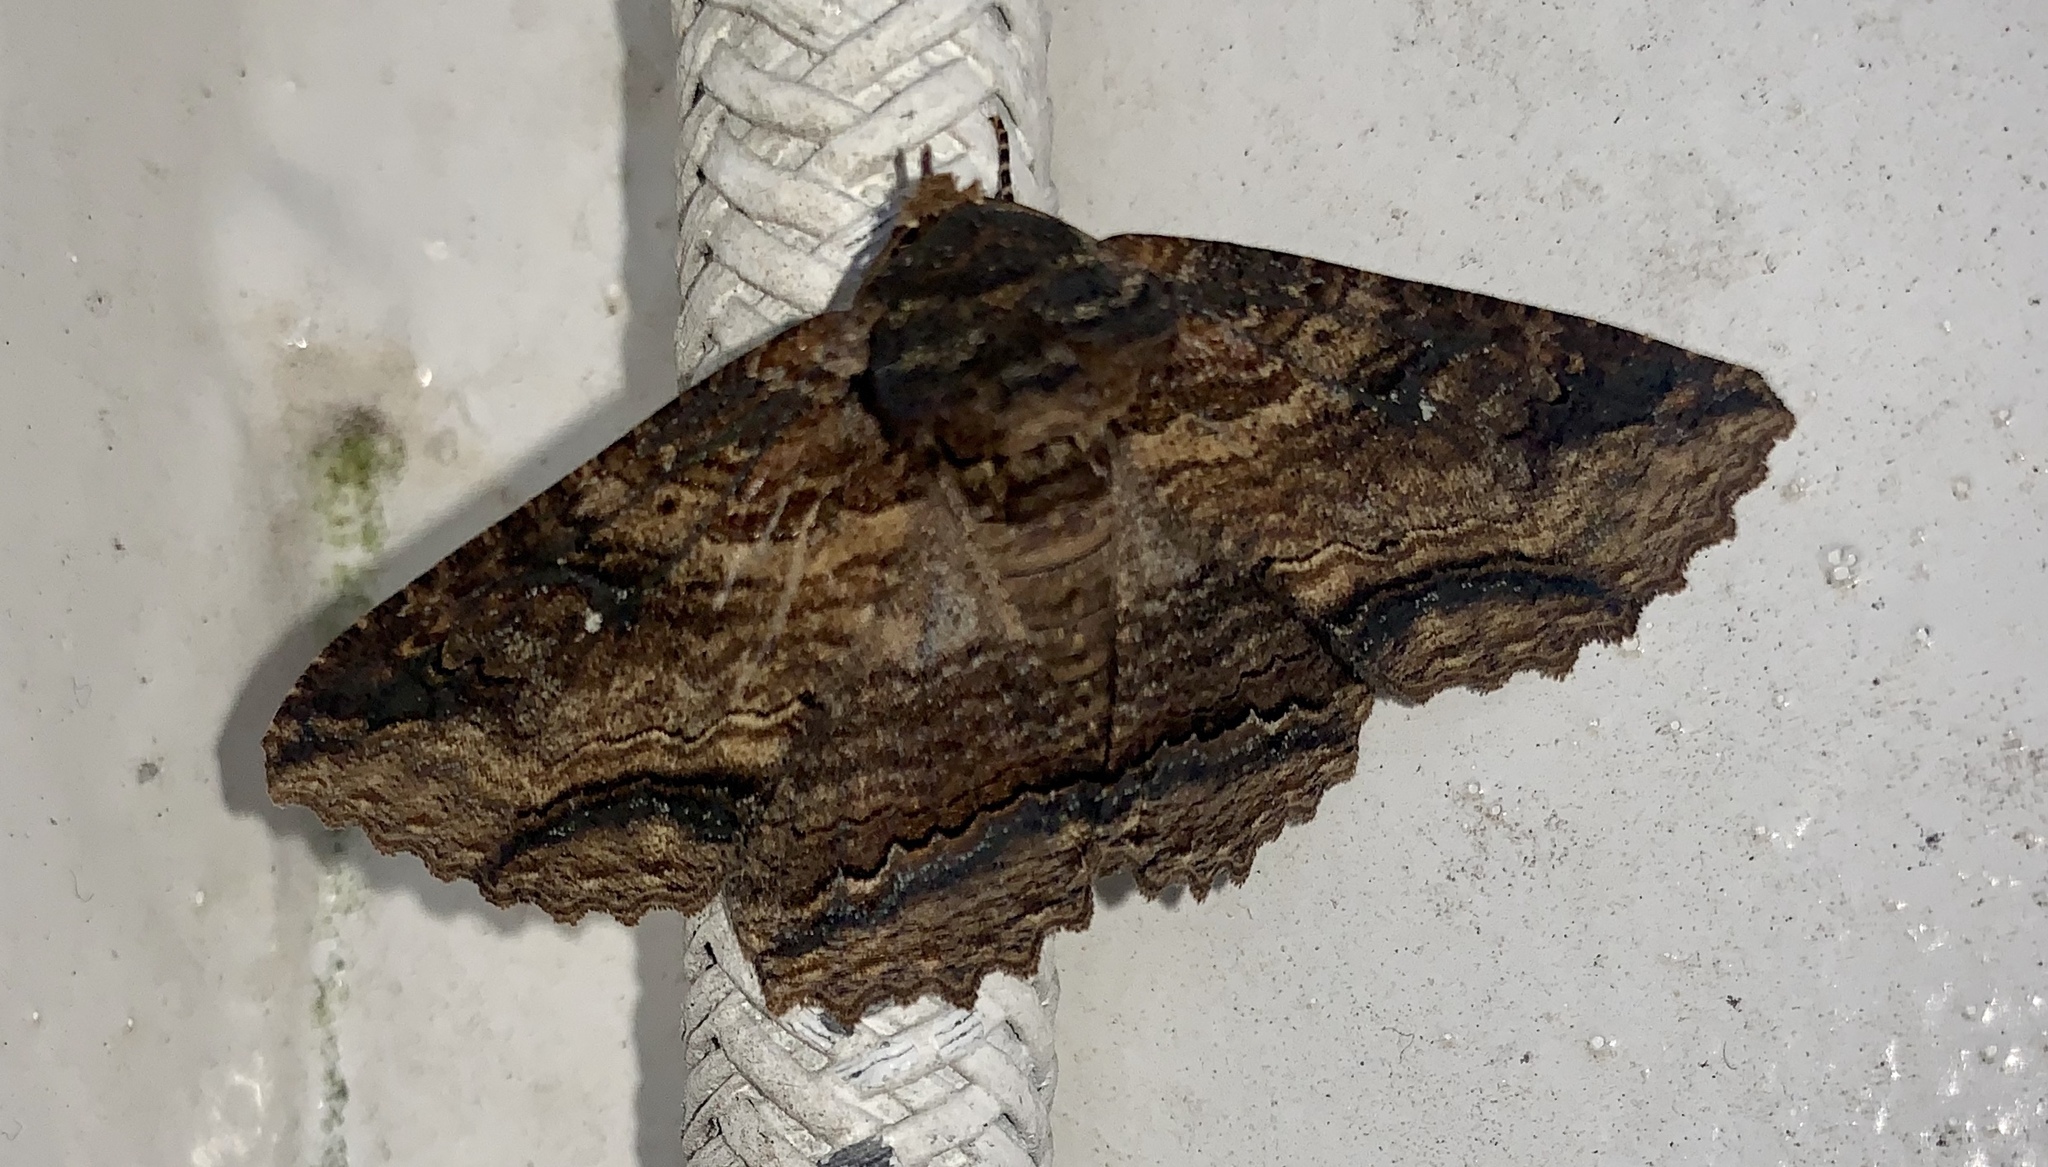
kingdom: Animalia
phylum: Arthropoda
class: Insecta
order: Lepidoptera
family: Erebidae
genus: Zale
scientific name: Zale lunata
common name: Lunate zale moth
